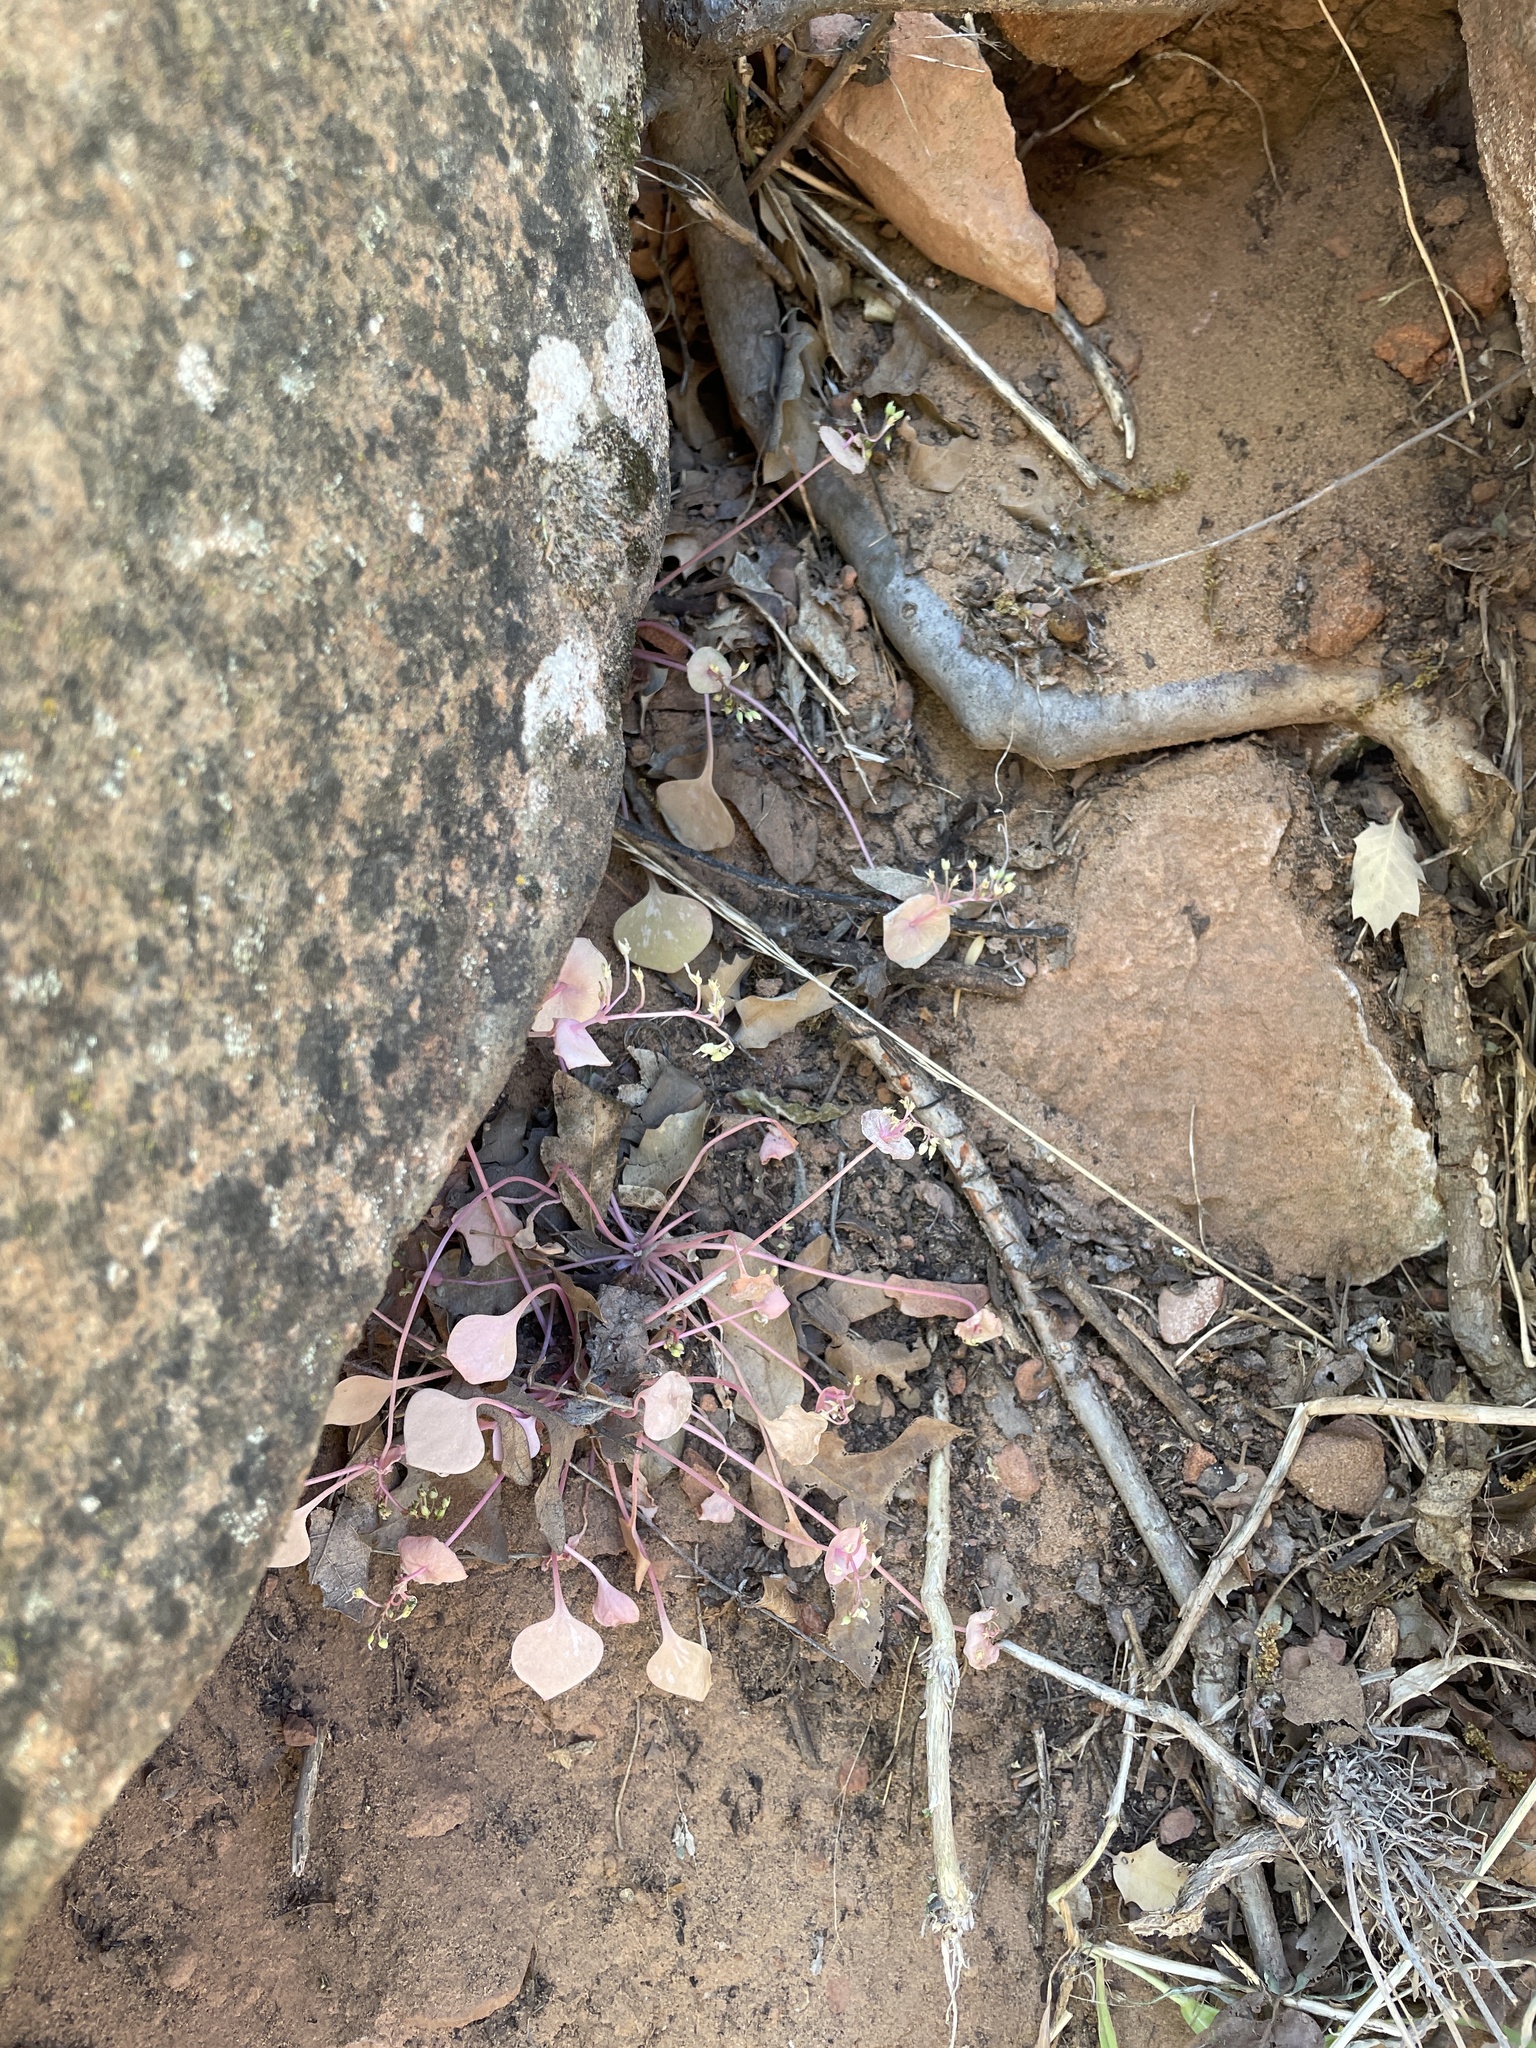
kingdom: Plantae
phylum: Tracheophyta
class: Magnoliopsida
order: Caryophyllales
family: Montiaceae
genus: Claytonia
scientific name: Claytonia perfoliata
